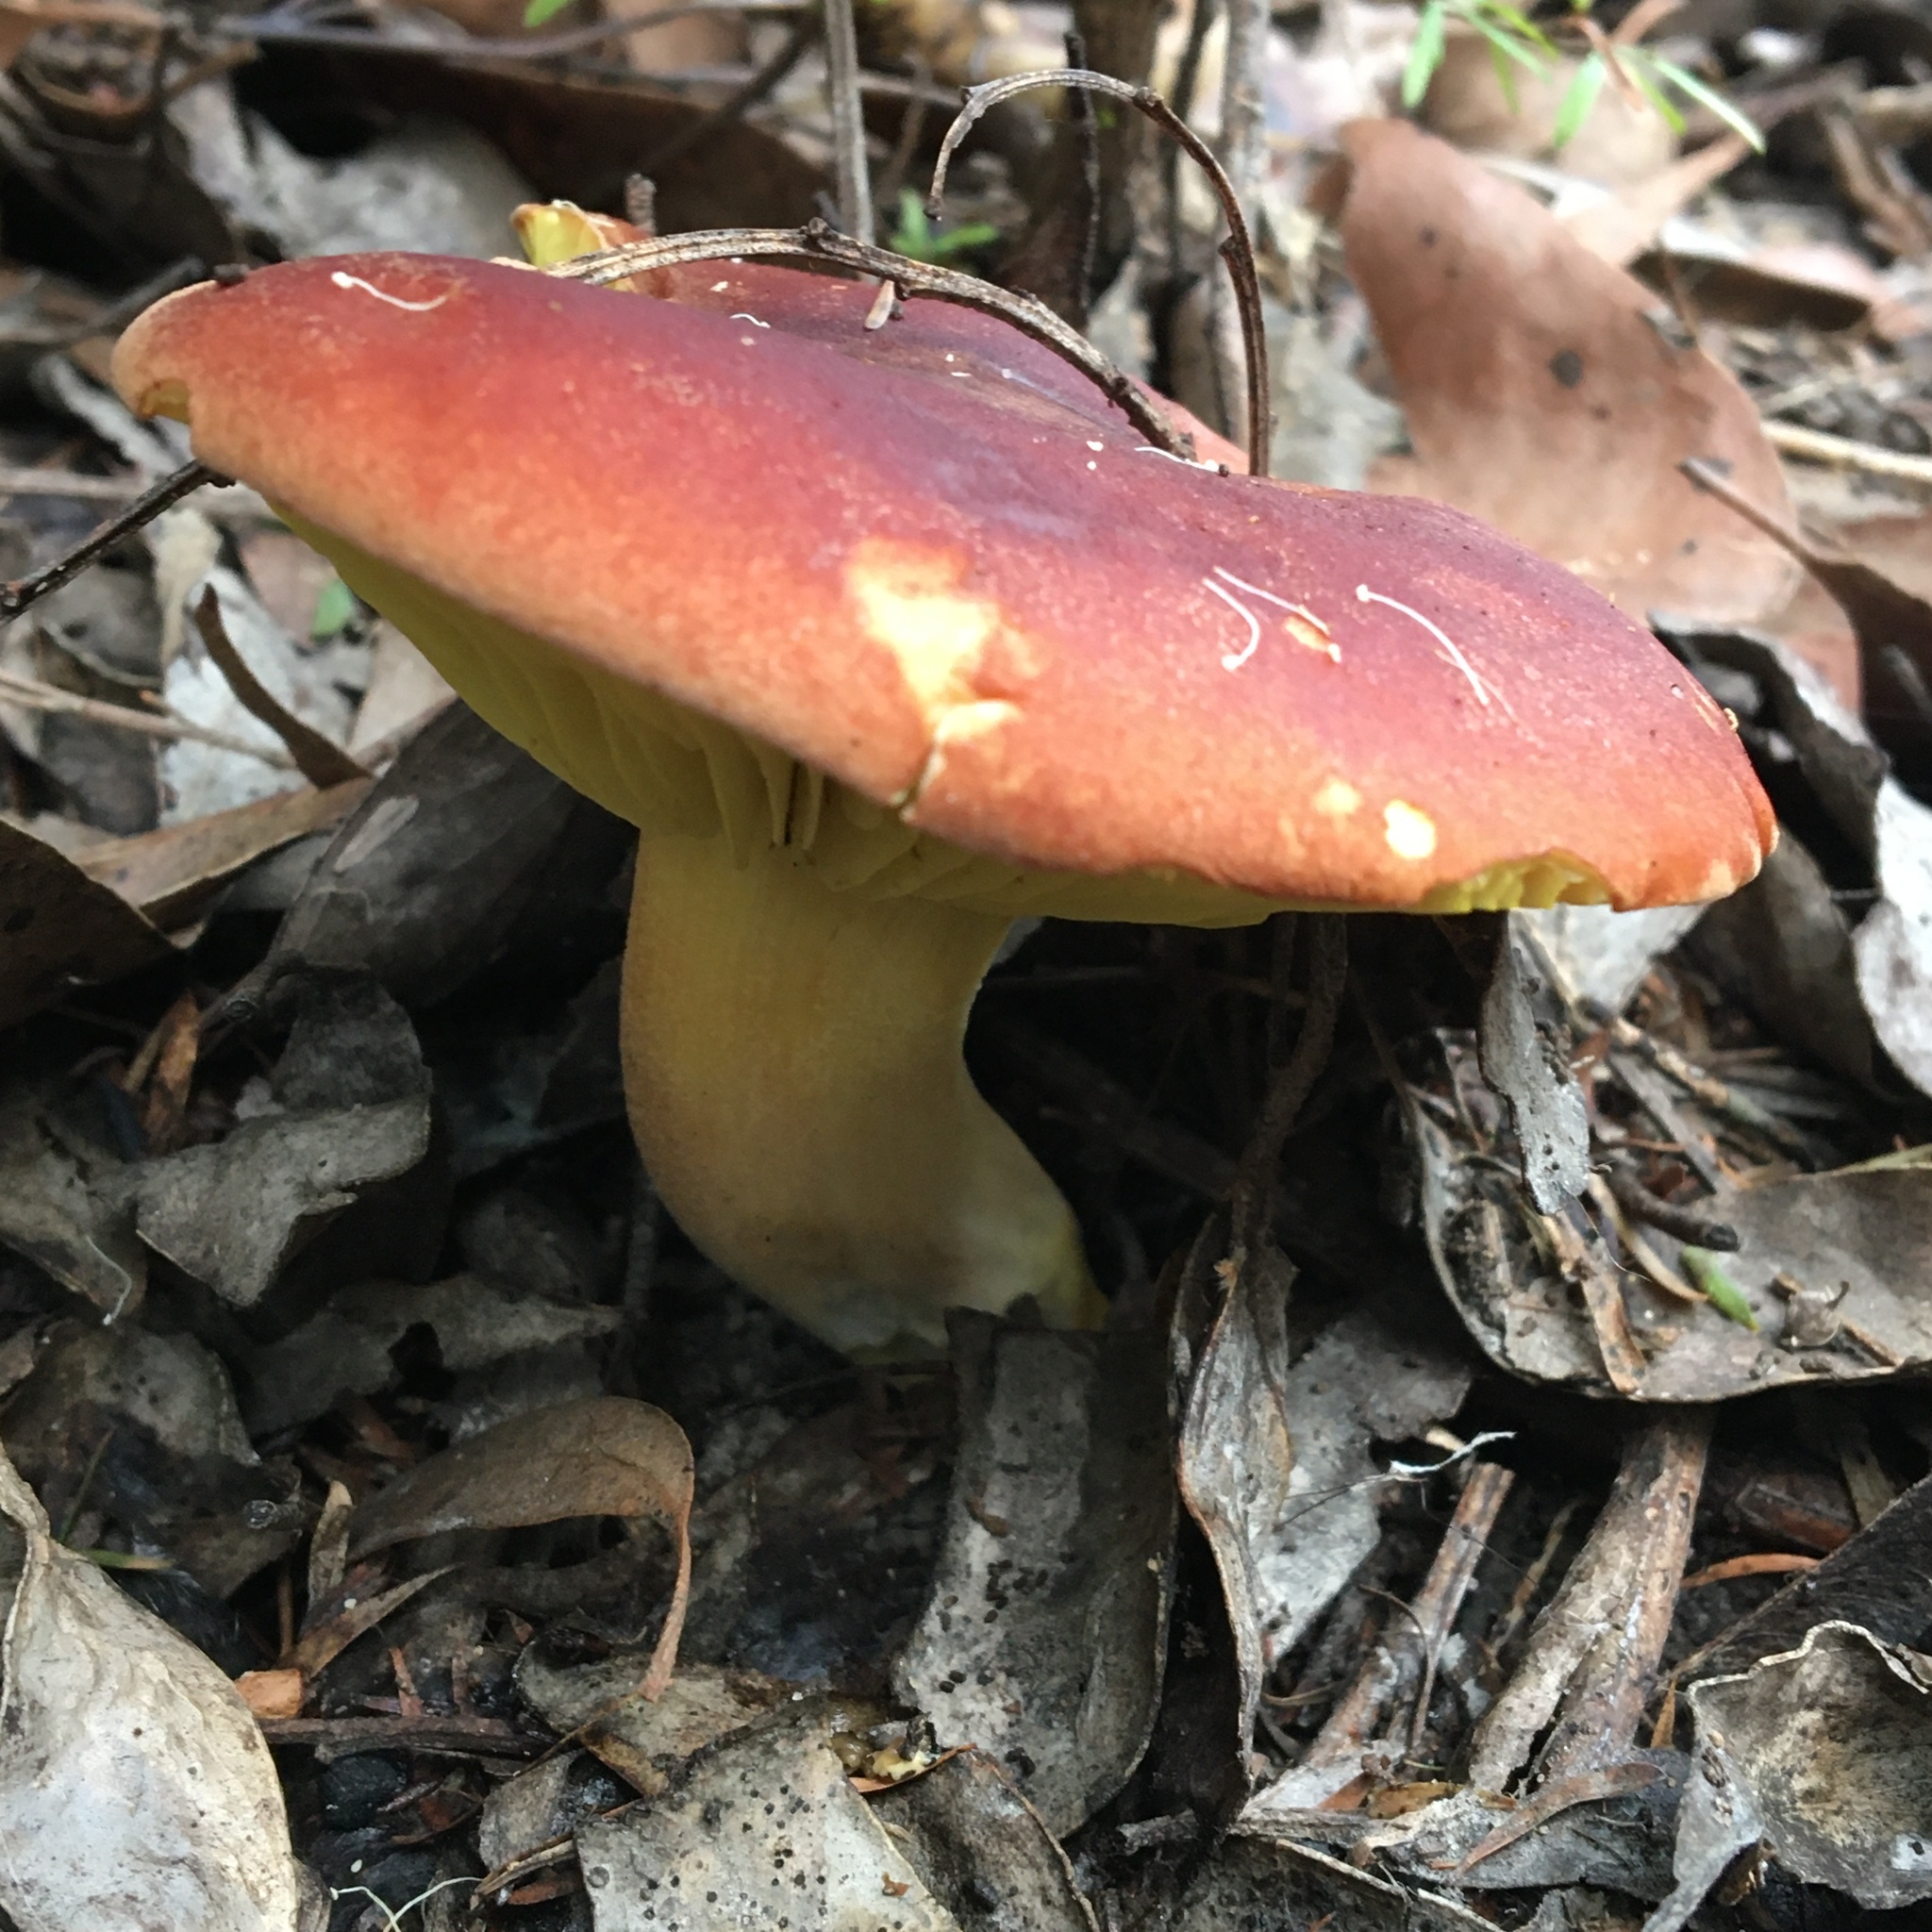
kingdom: Fungi
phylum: Basidiomycota
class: Agaricomycetes
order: Boletales
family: Boletaceae
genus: Phylloporus
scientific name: Phylloporus rhodoxanthus
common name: Golden gilled bolete
